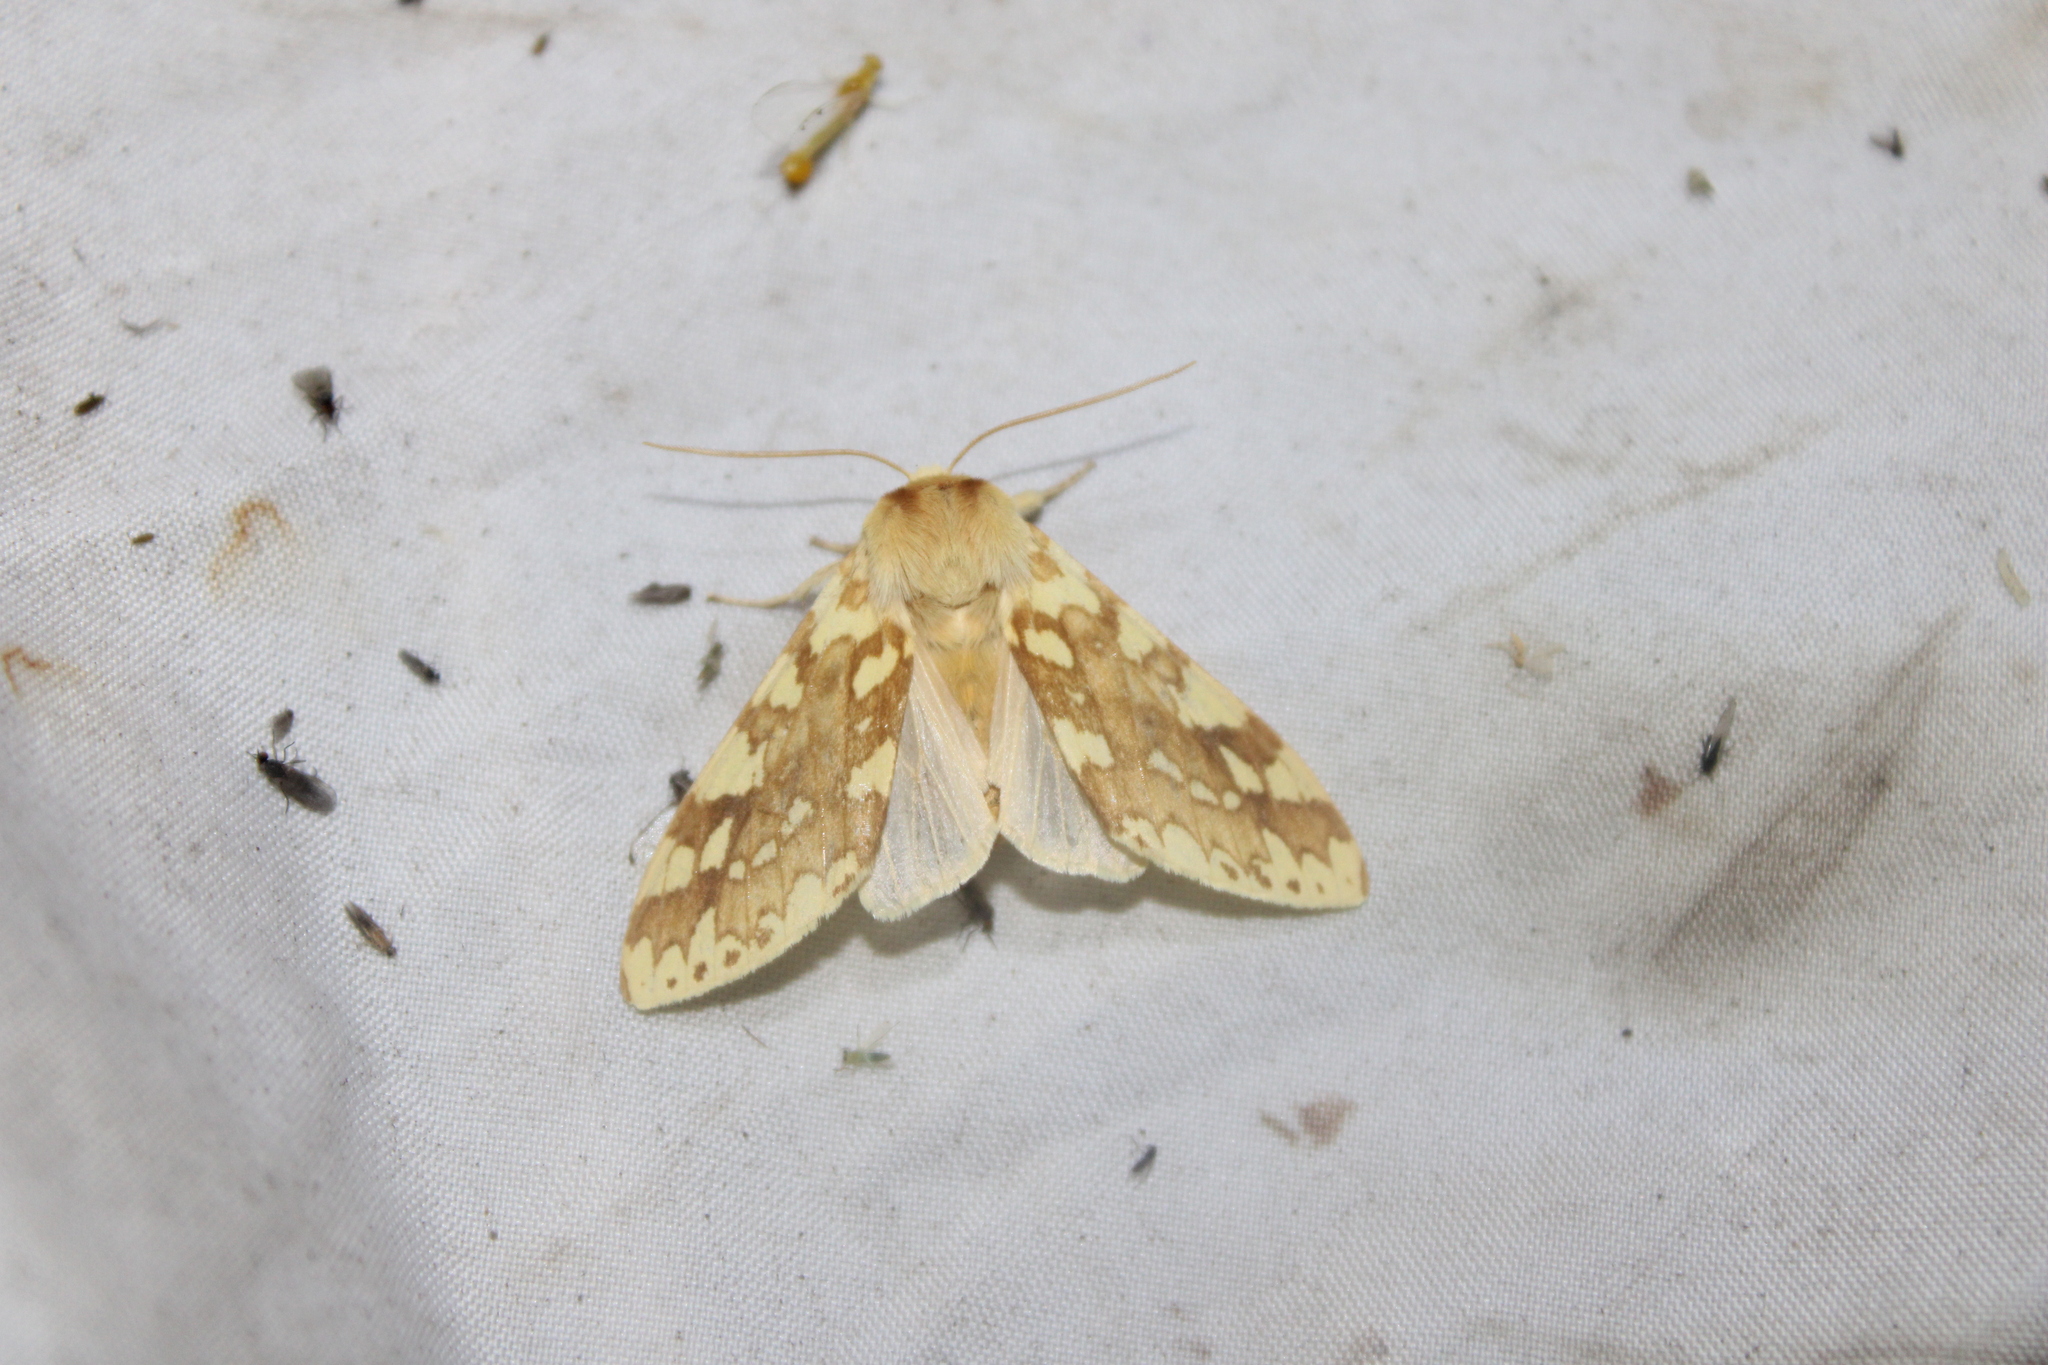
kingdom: Animalia
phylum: Arthropoda
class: Insecta
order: Lepidoptera
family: Erebidae
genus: Lophocampa
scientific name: Lophocampa maculata
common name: Spotted tussock moth
